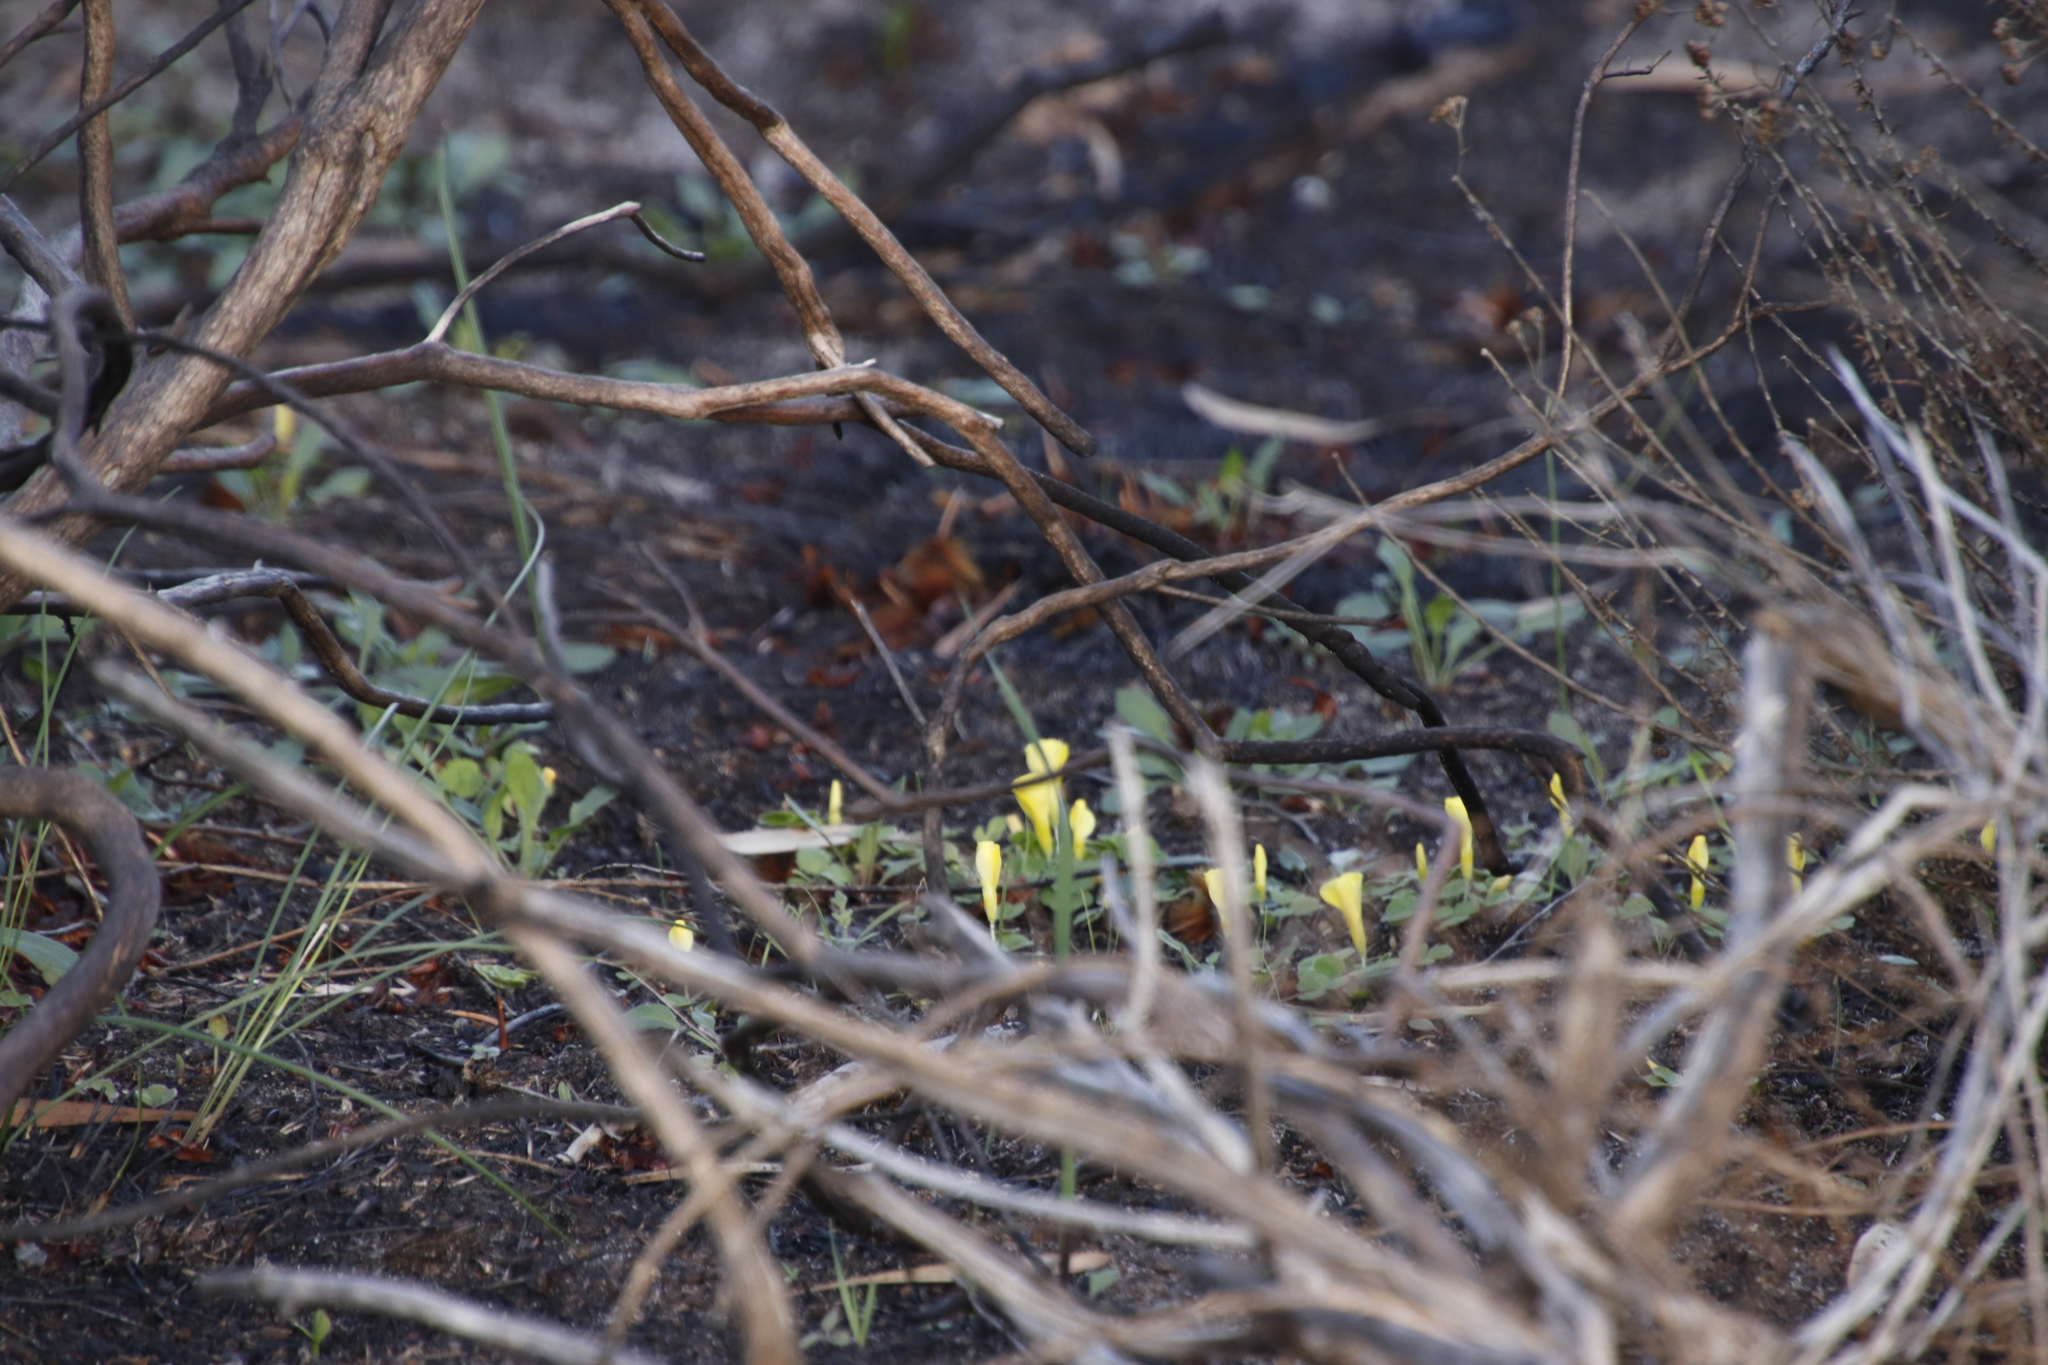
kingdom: Plantae
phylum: Tracheophyta
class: Magnoliopsida
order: Oxalidales
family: Oxalidaceae
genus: Oxalis
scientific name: Oxalis luteola
